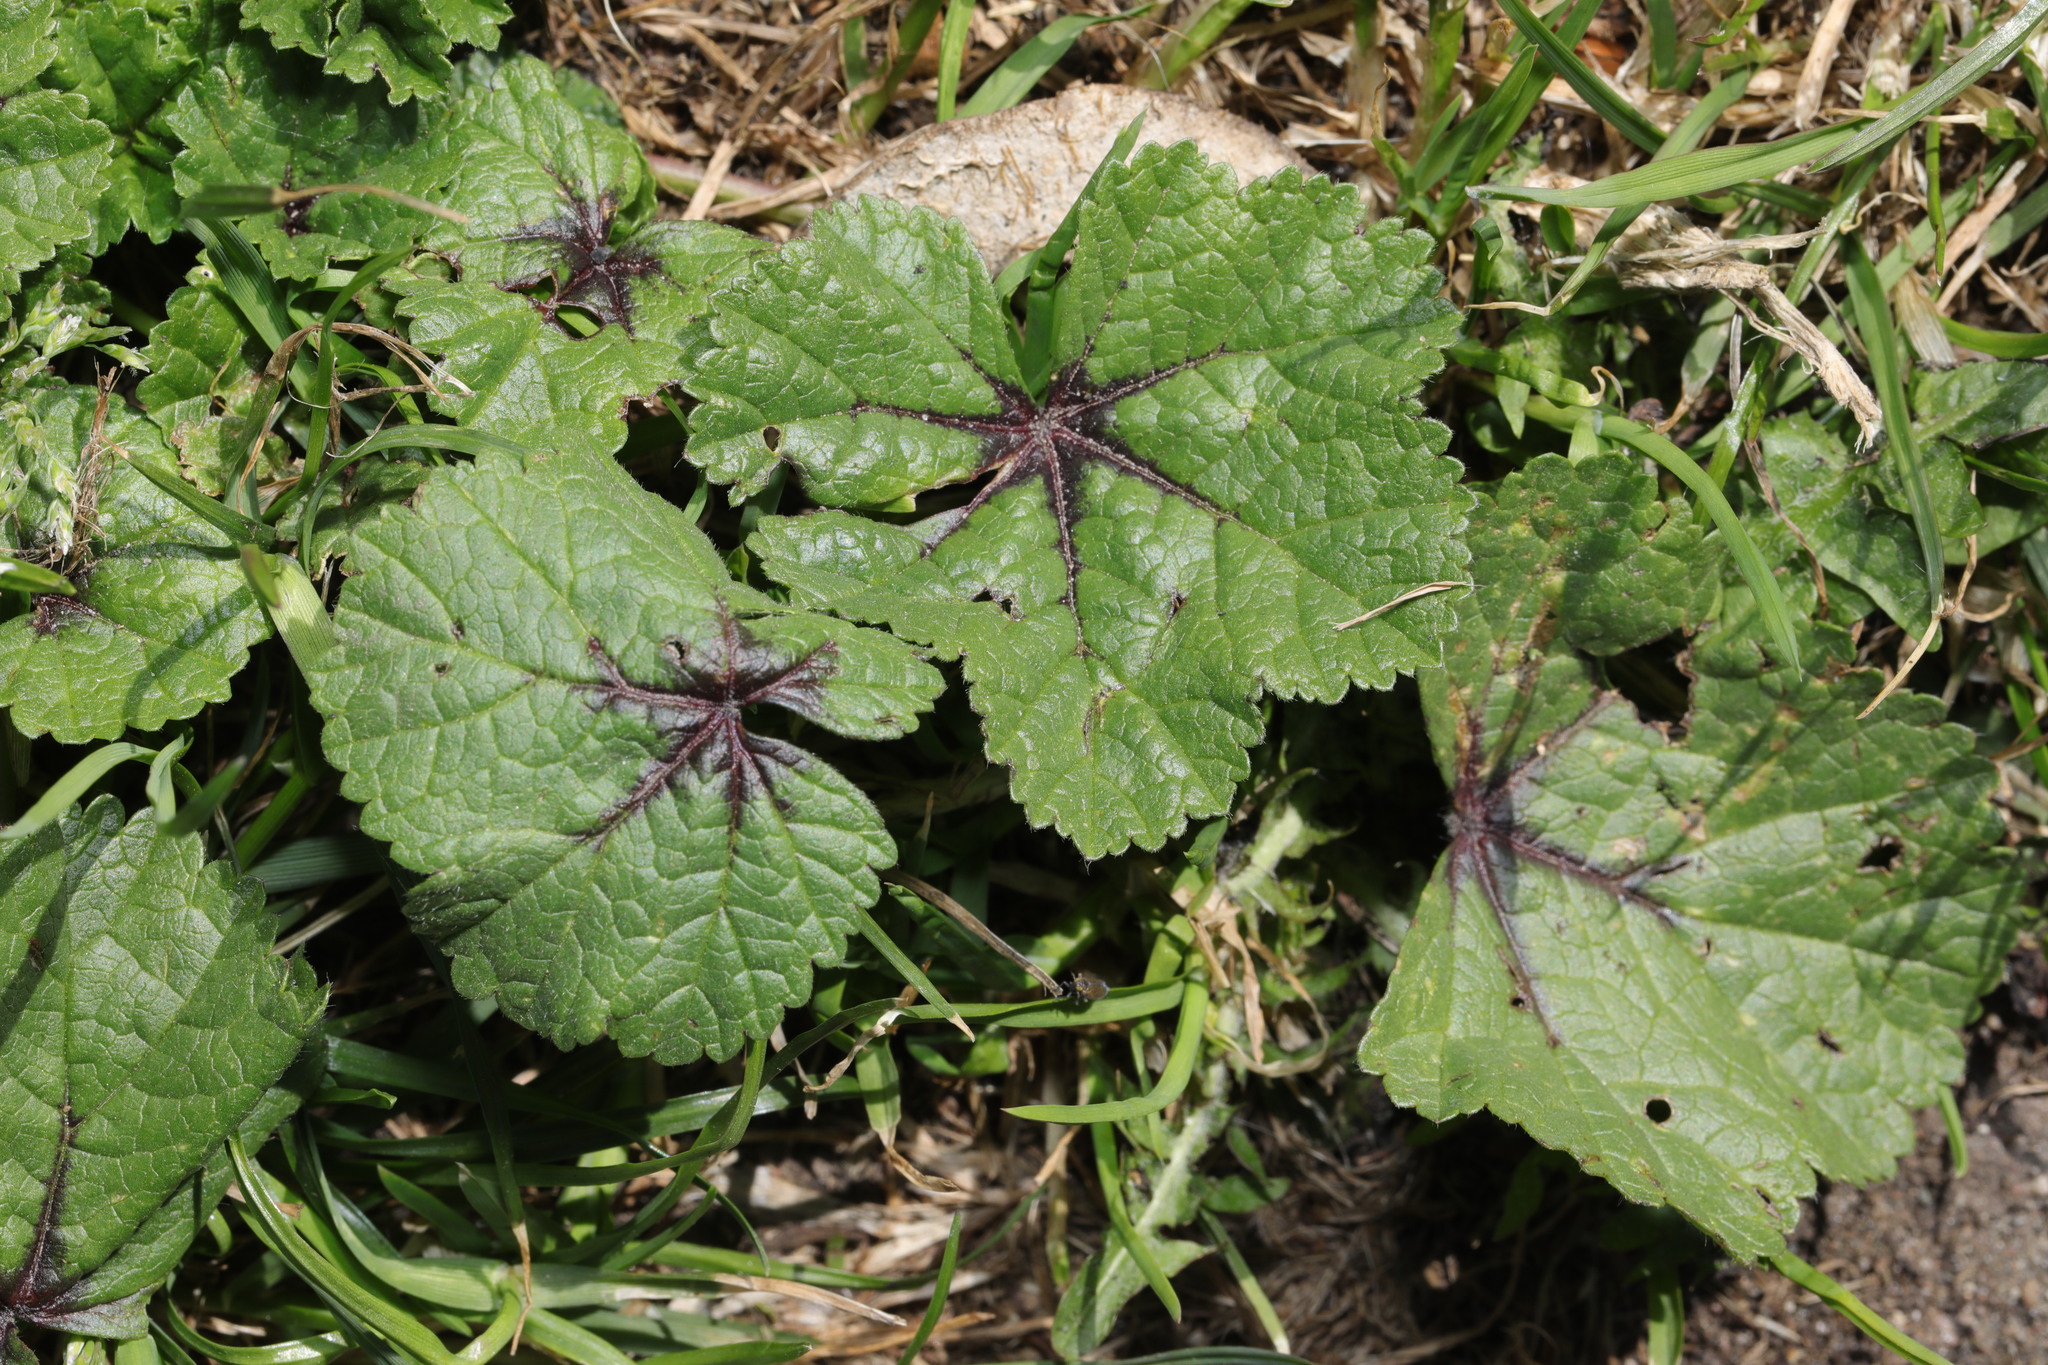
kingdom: Plantae
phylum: Tracheophyta
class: Magnoliopsida
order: Malvales
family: Malvaceae
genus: Malva
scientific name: Malva sylvestris
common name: Common mallow
